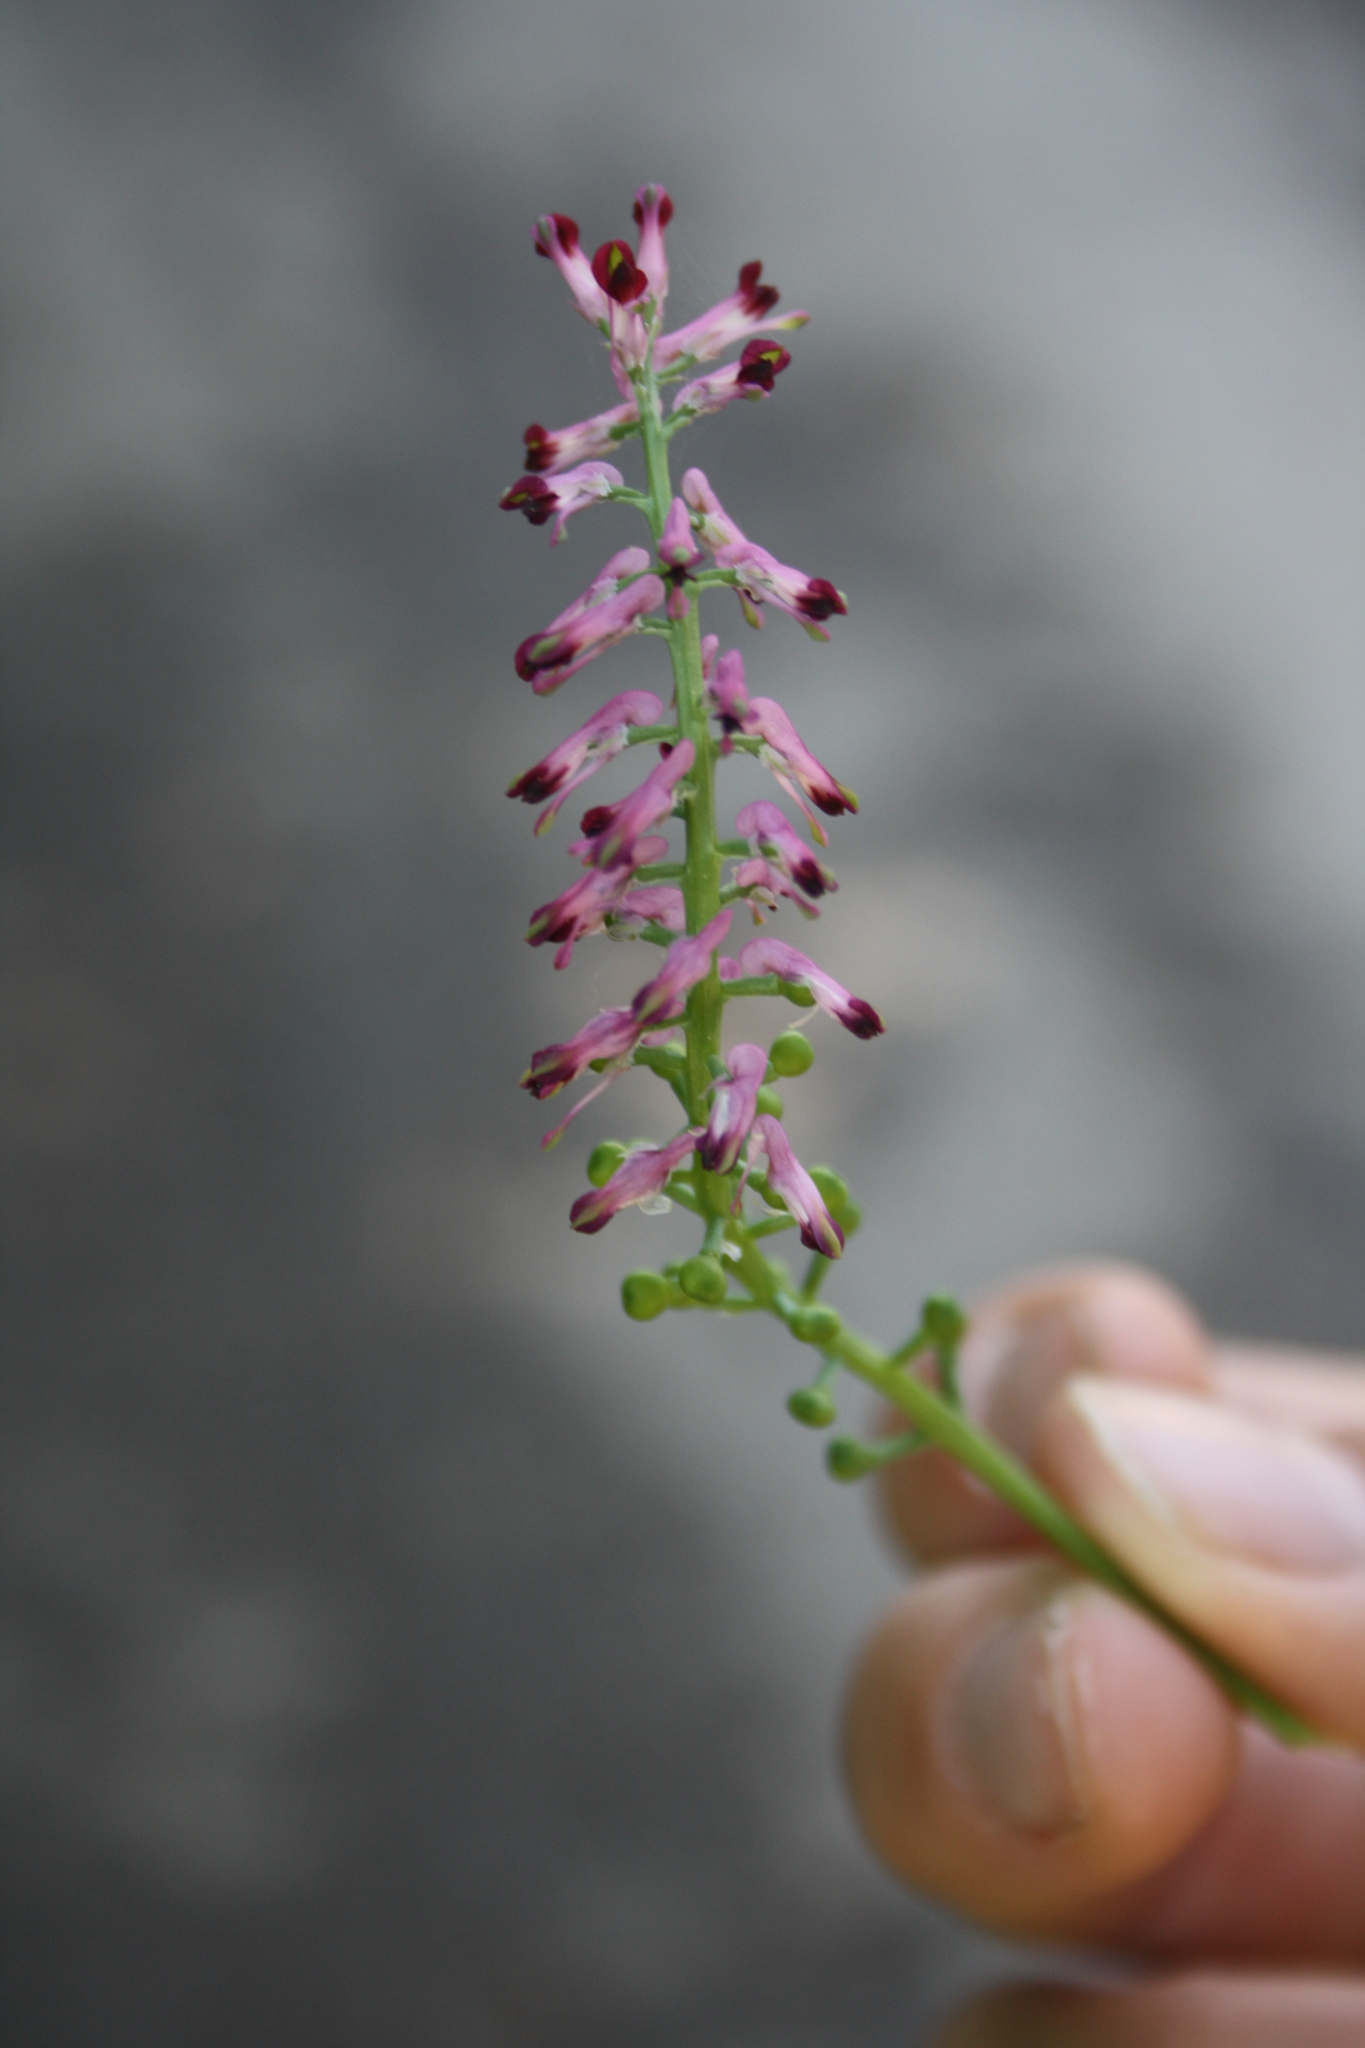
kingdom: Plantae
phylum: Tracheophyta
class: Magnoliopsida
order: Ranunculales
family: Papaveraceae
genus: Fumaria
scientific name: Fumaria officinalis
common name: Common fumitory
